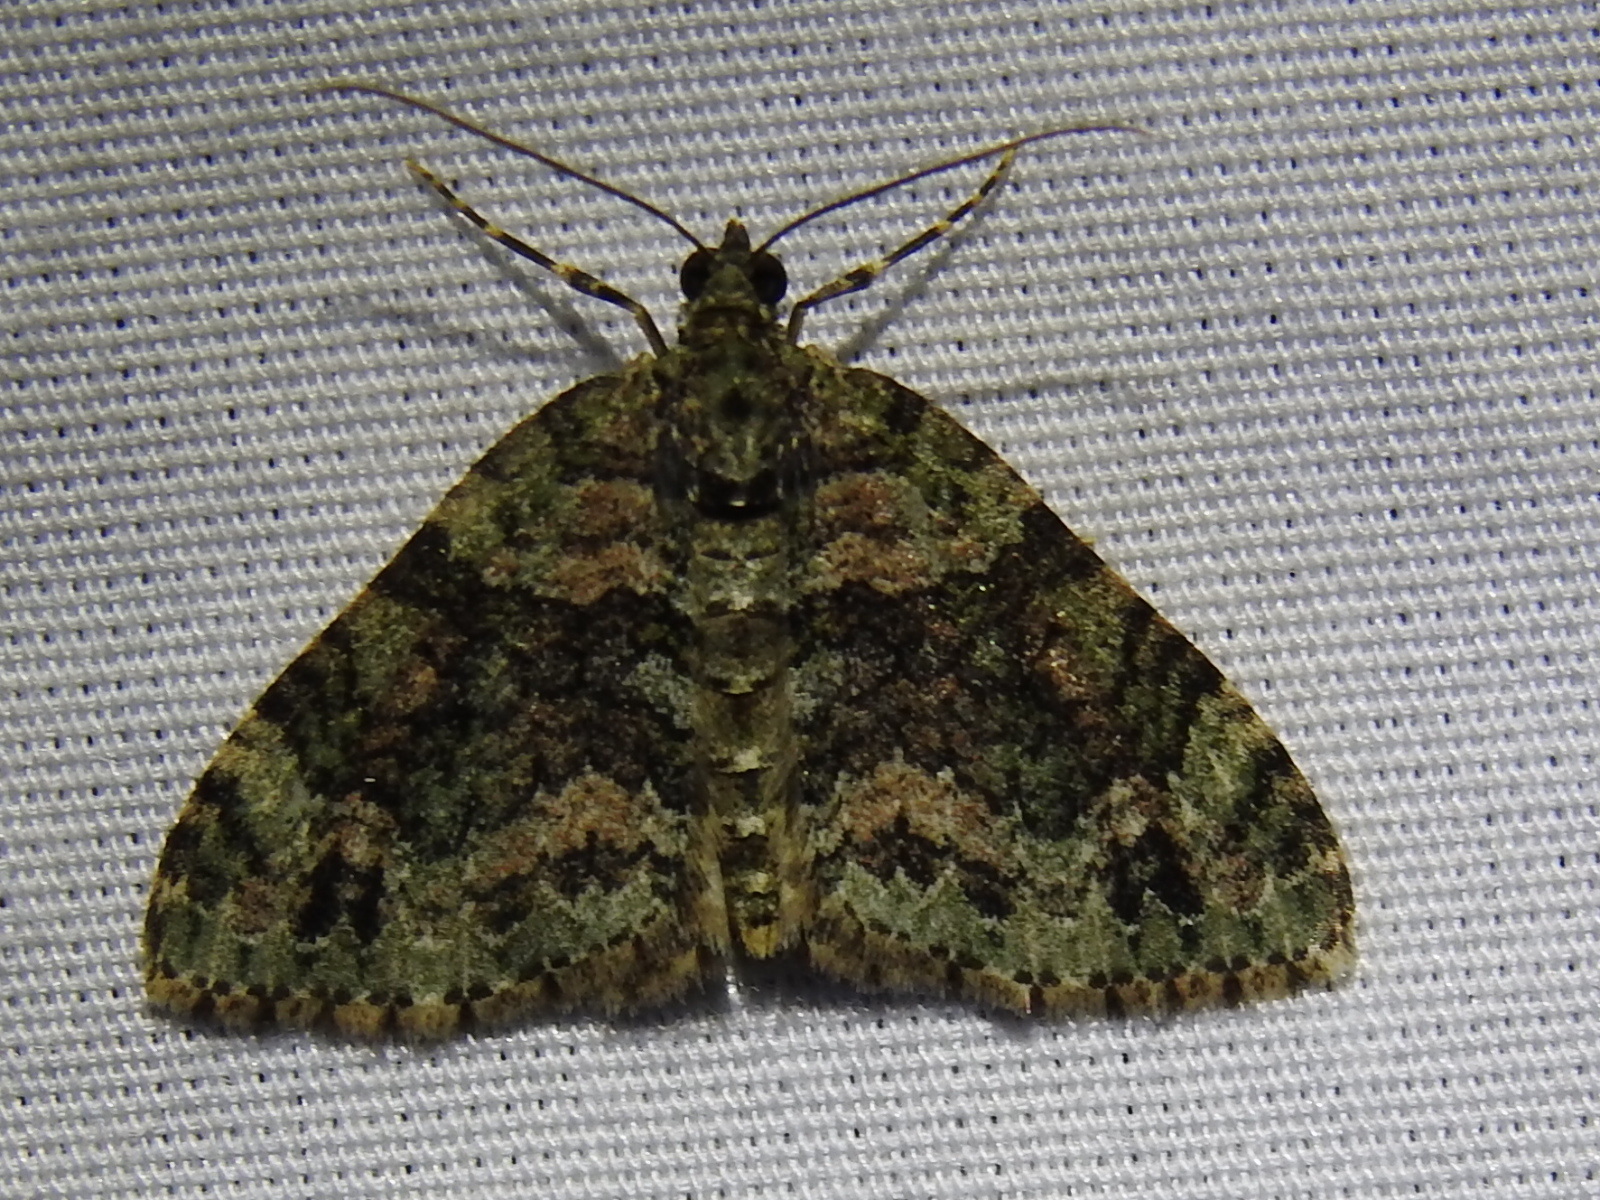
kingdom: Animalia
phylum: Arthropoda
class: Insecta
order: Lepidoptera
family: Geometridae
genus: Hammaptera
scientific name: Hammaptera parinotata
